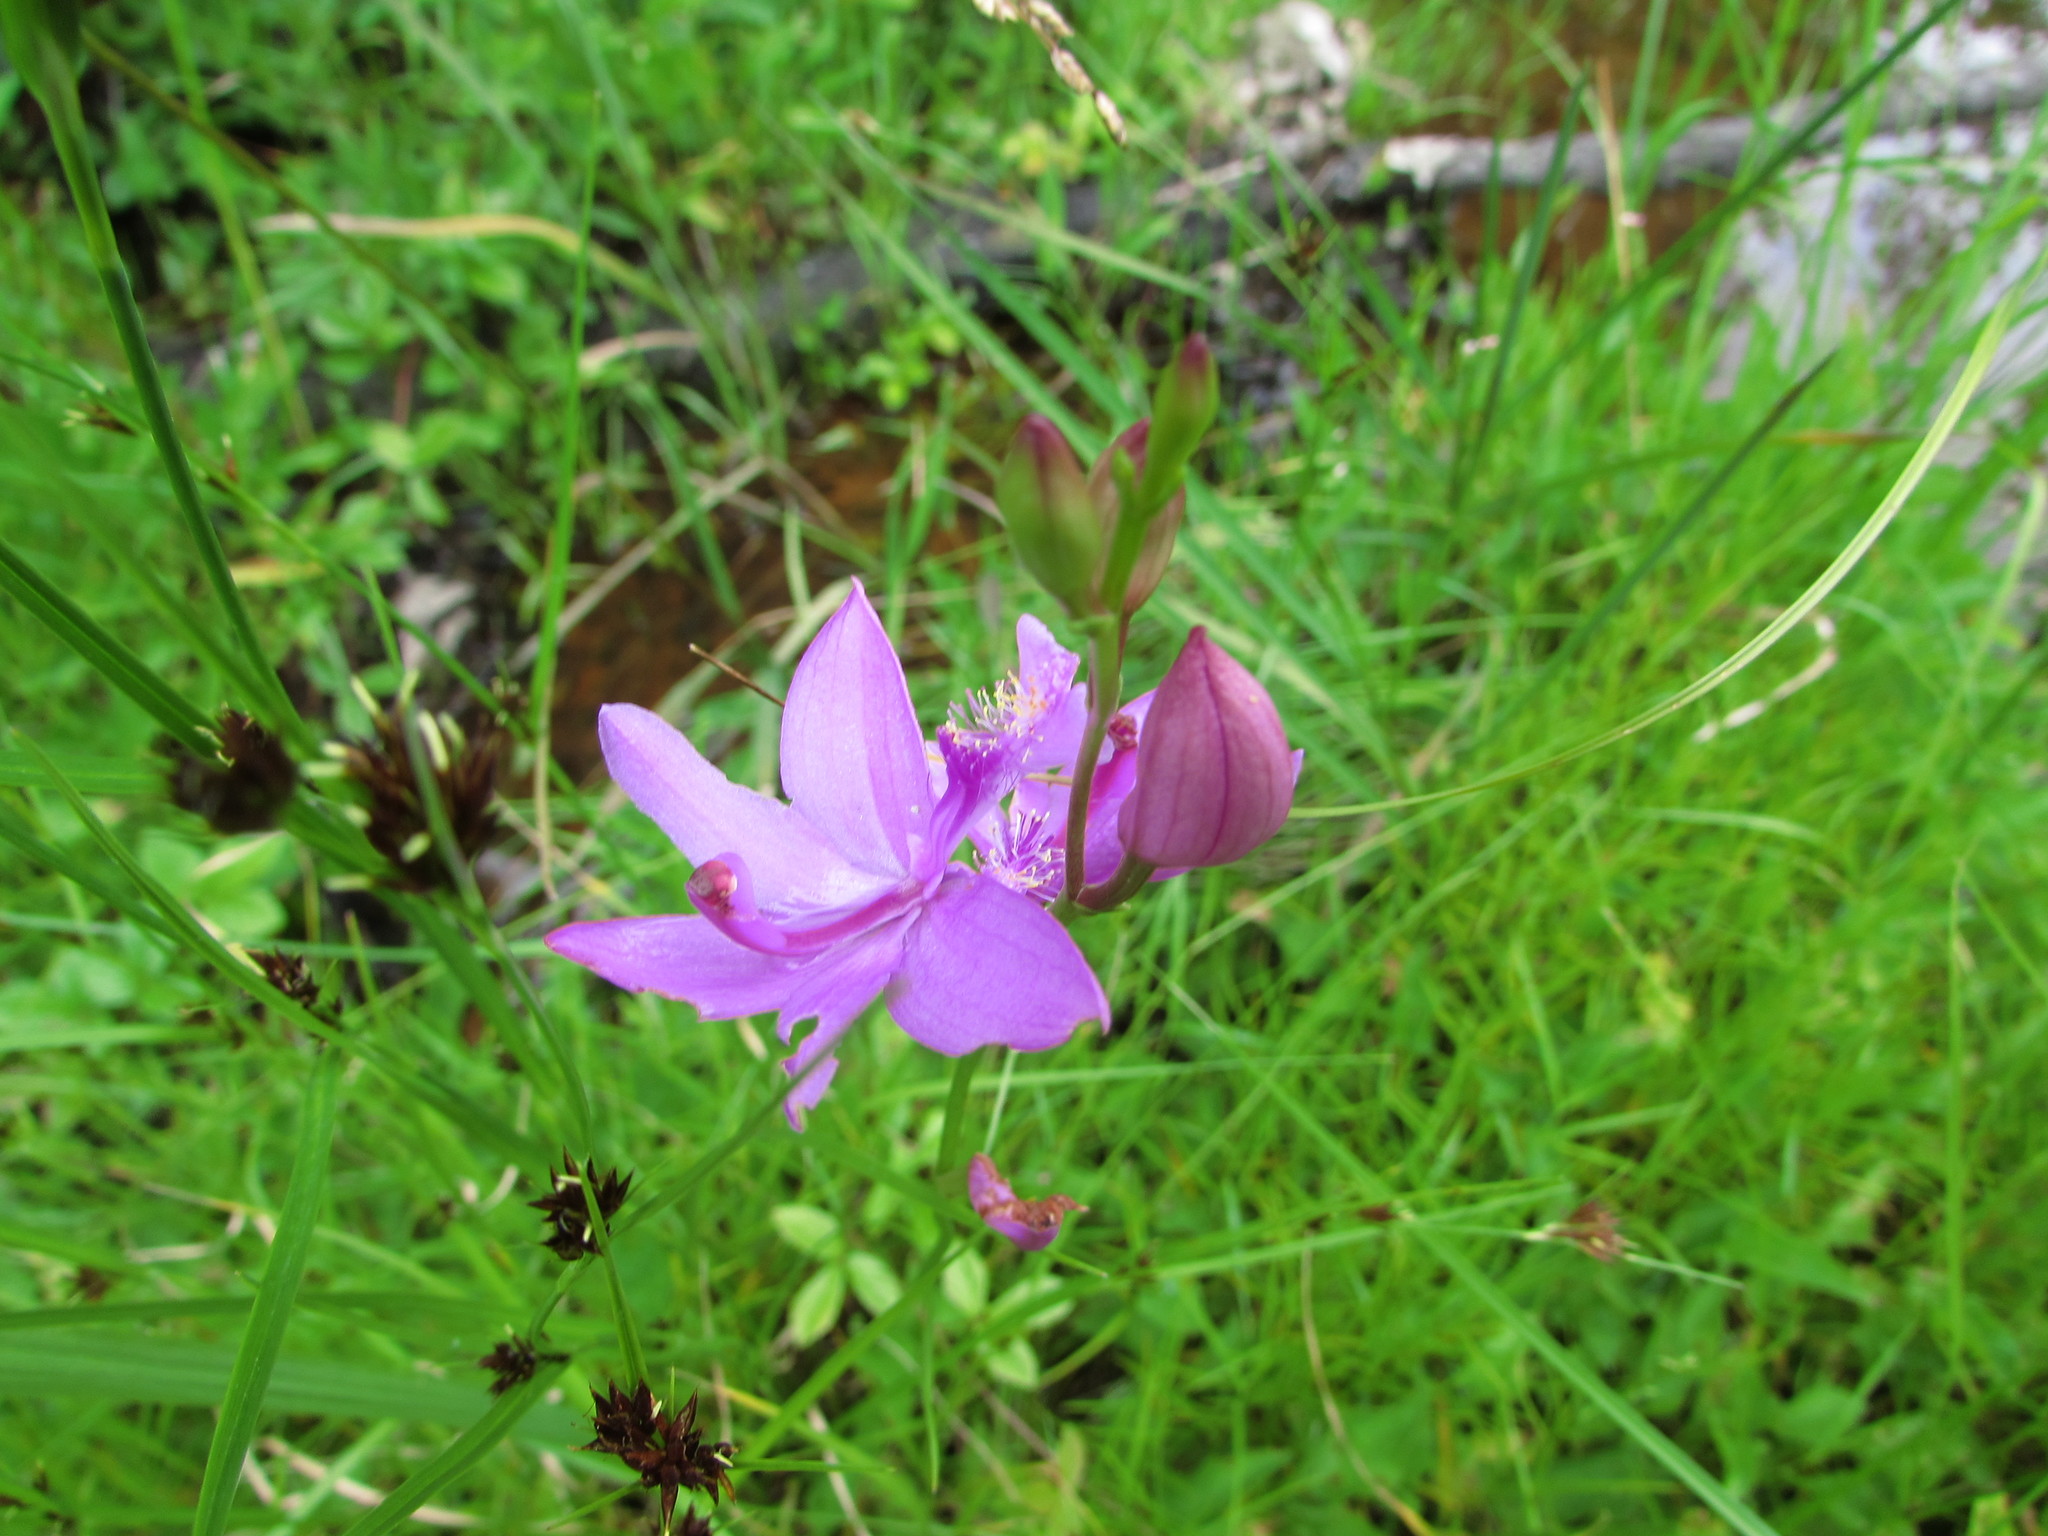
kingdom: Plantae
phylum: Tracheophyta
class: Liliopsida
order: Asparagales
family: Orchidaceae
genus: Calopogon
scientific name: Calopogon tuberosus
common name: Grass-pink
